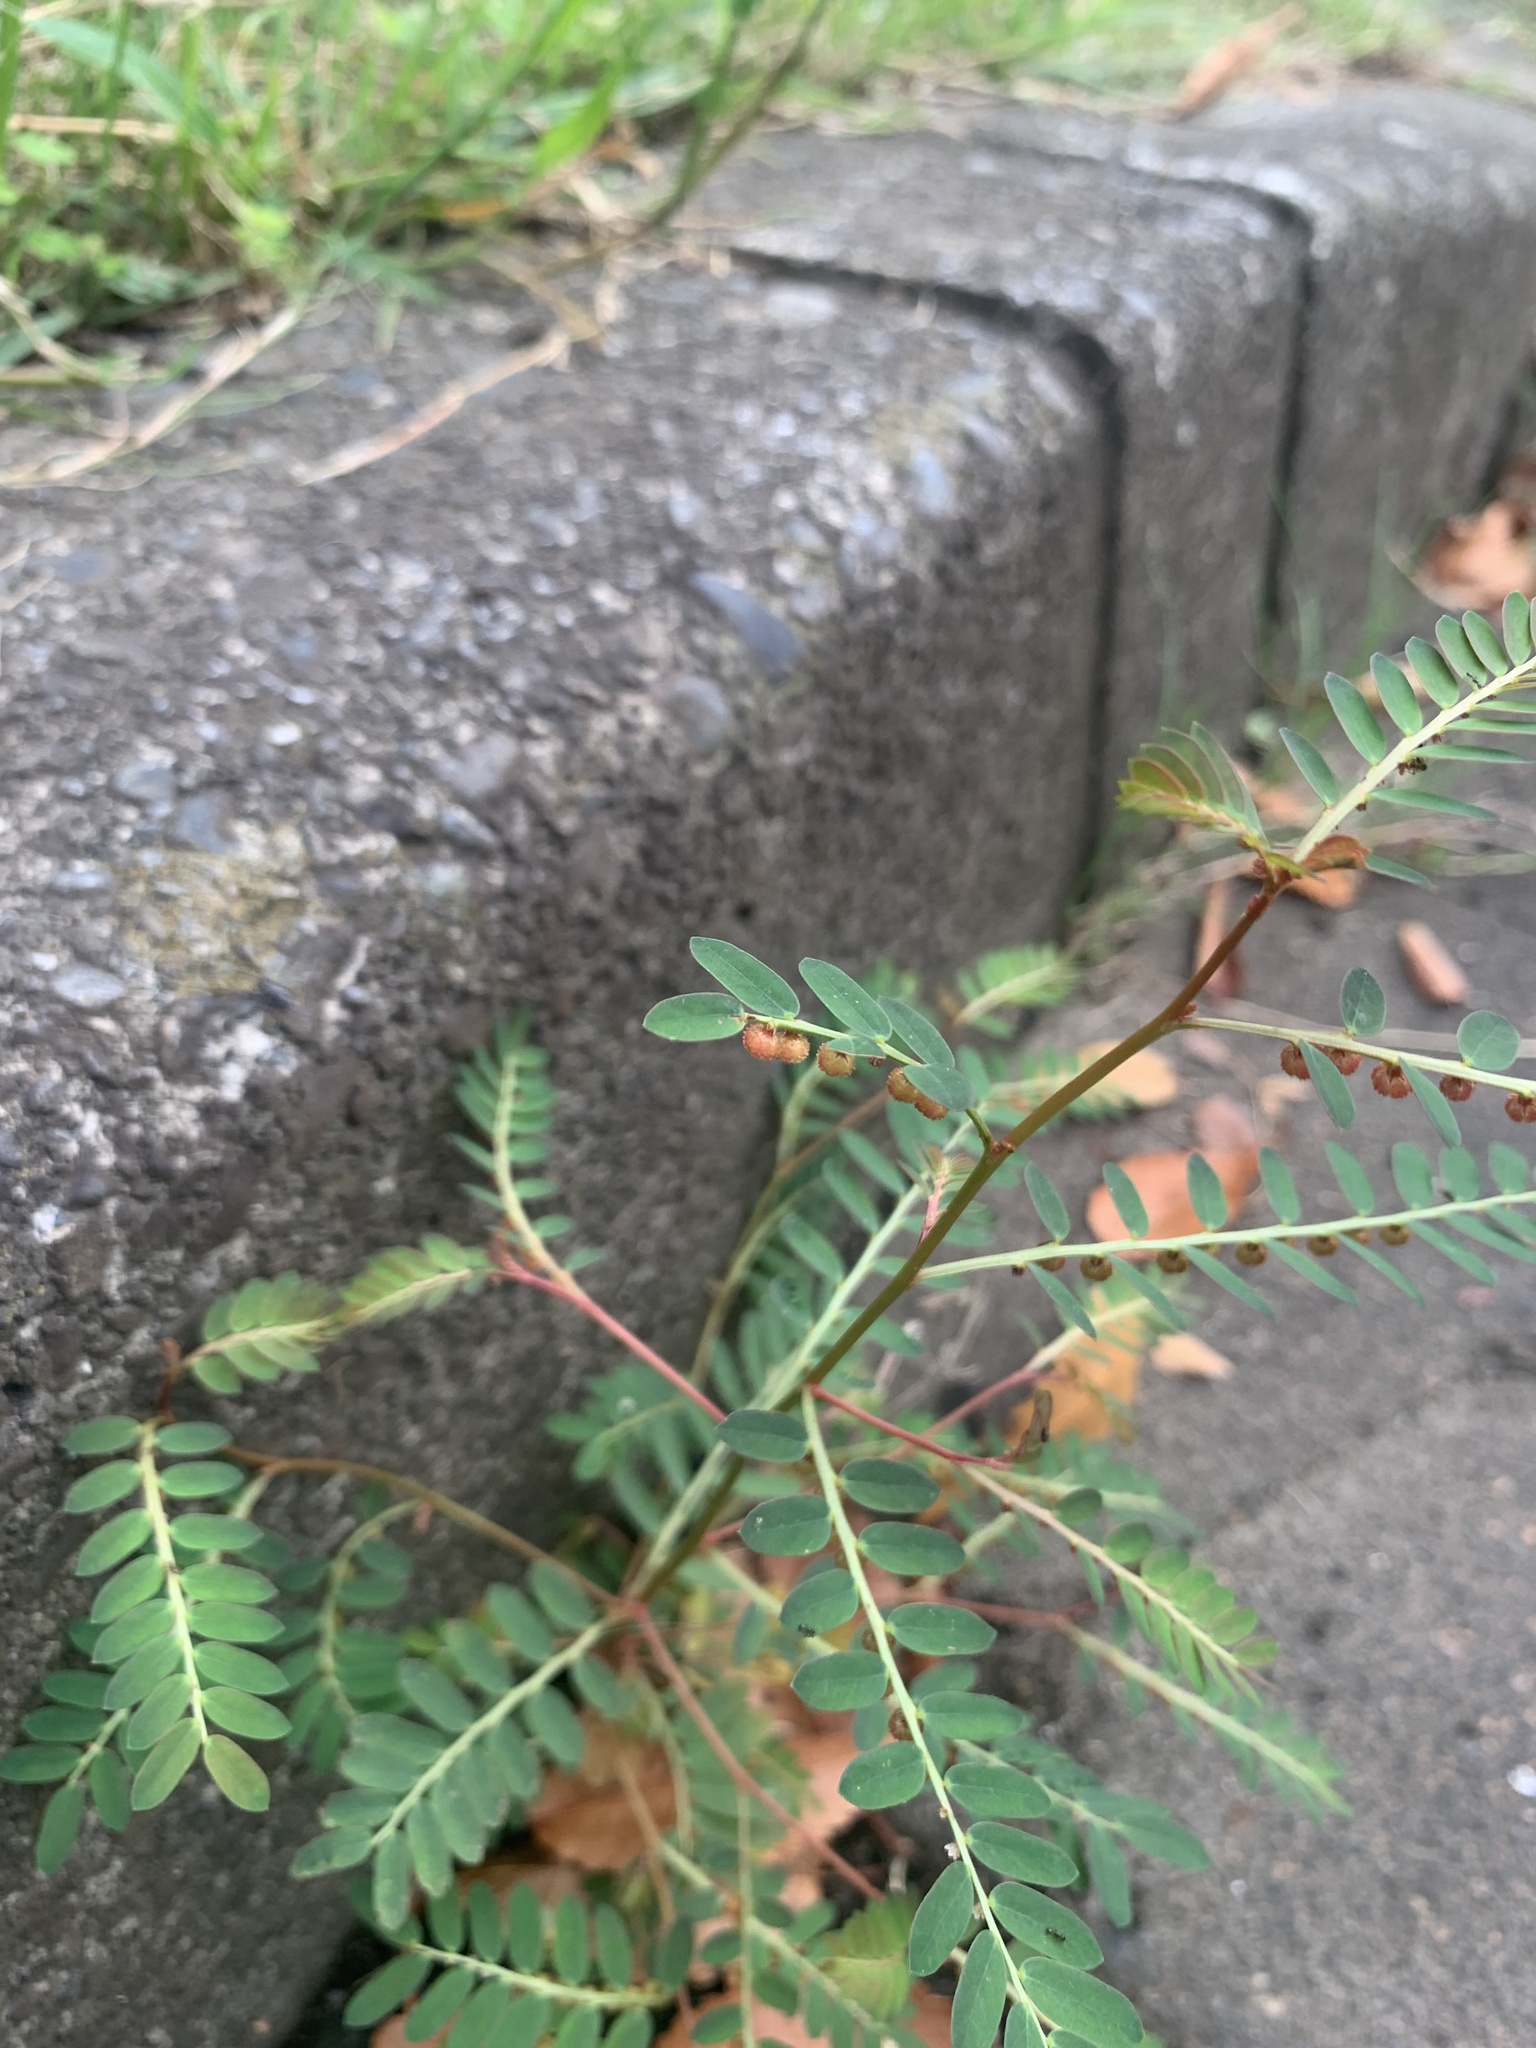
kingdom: Plantae
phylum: Tracheophyta
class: Magnoliopsida
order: Malpighiales
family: Phyllanthaceae
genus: Phyllanthus
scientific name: Phyllanthus urinaria
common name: Chamber bitter
